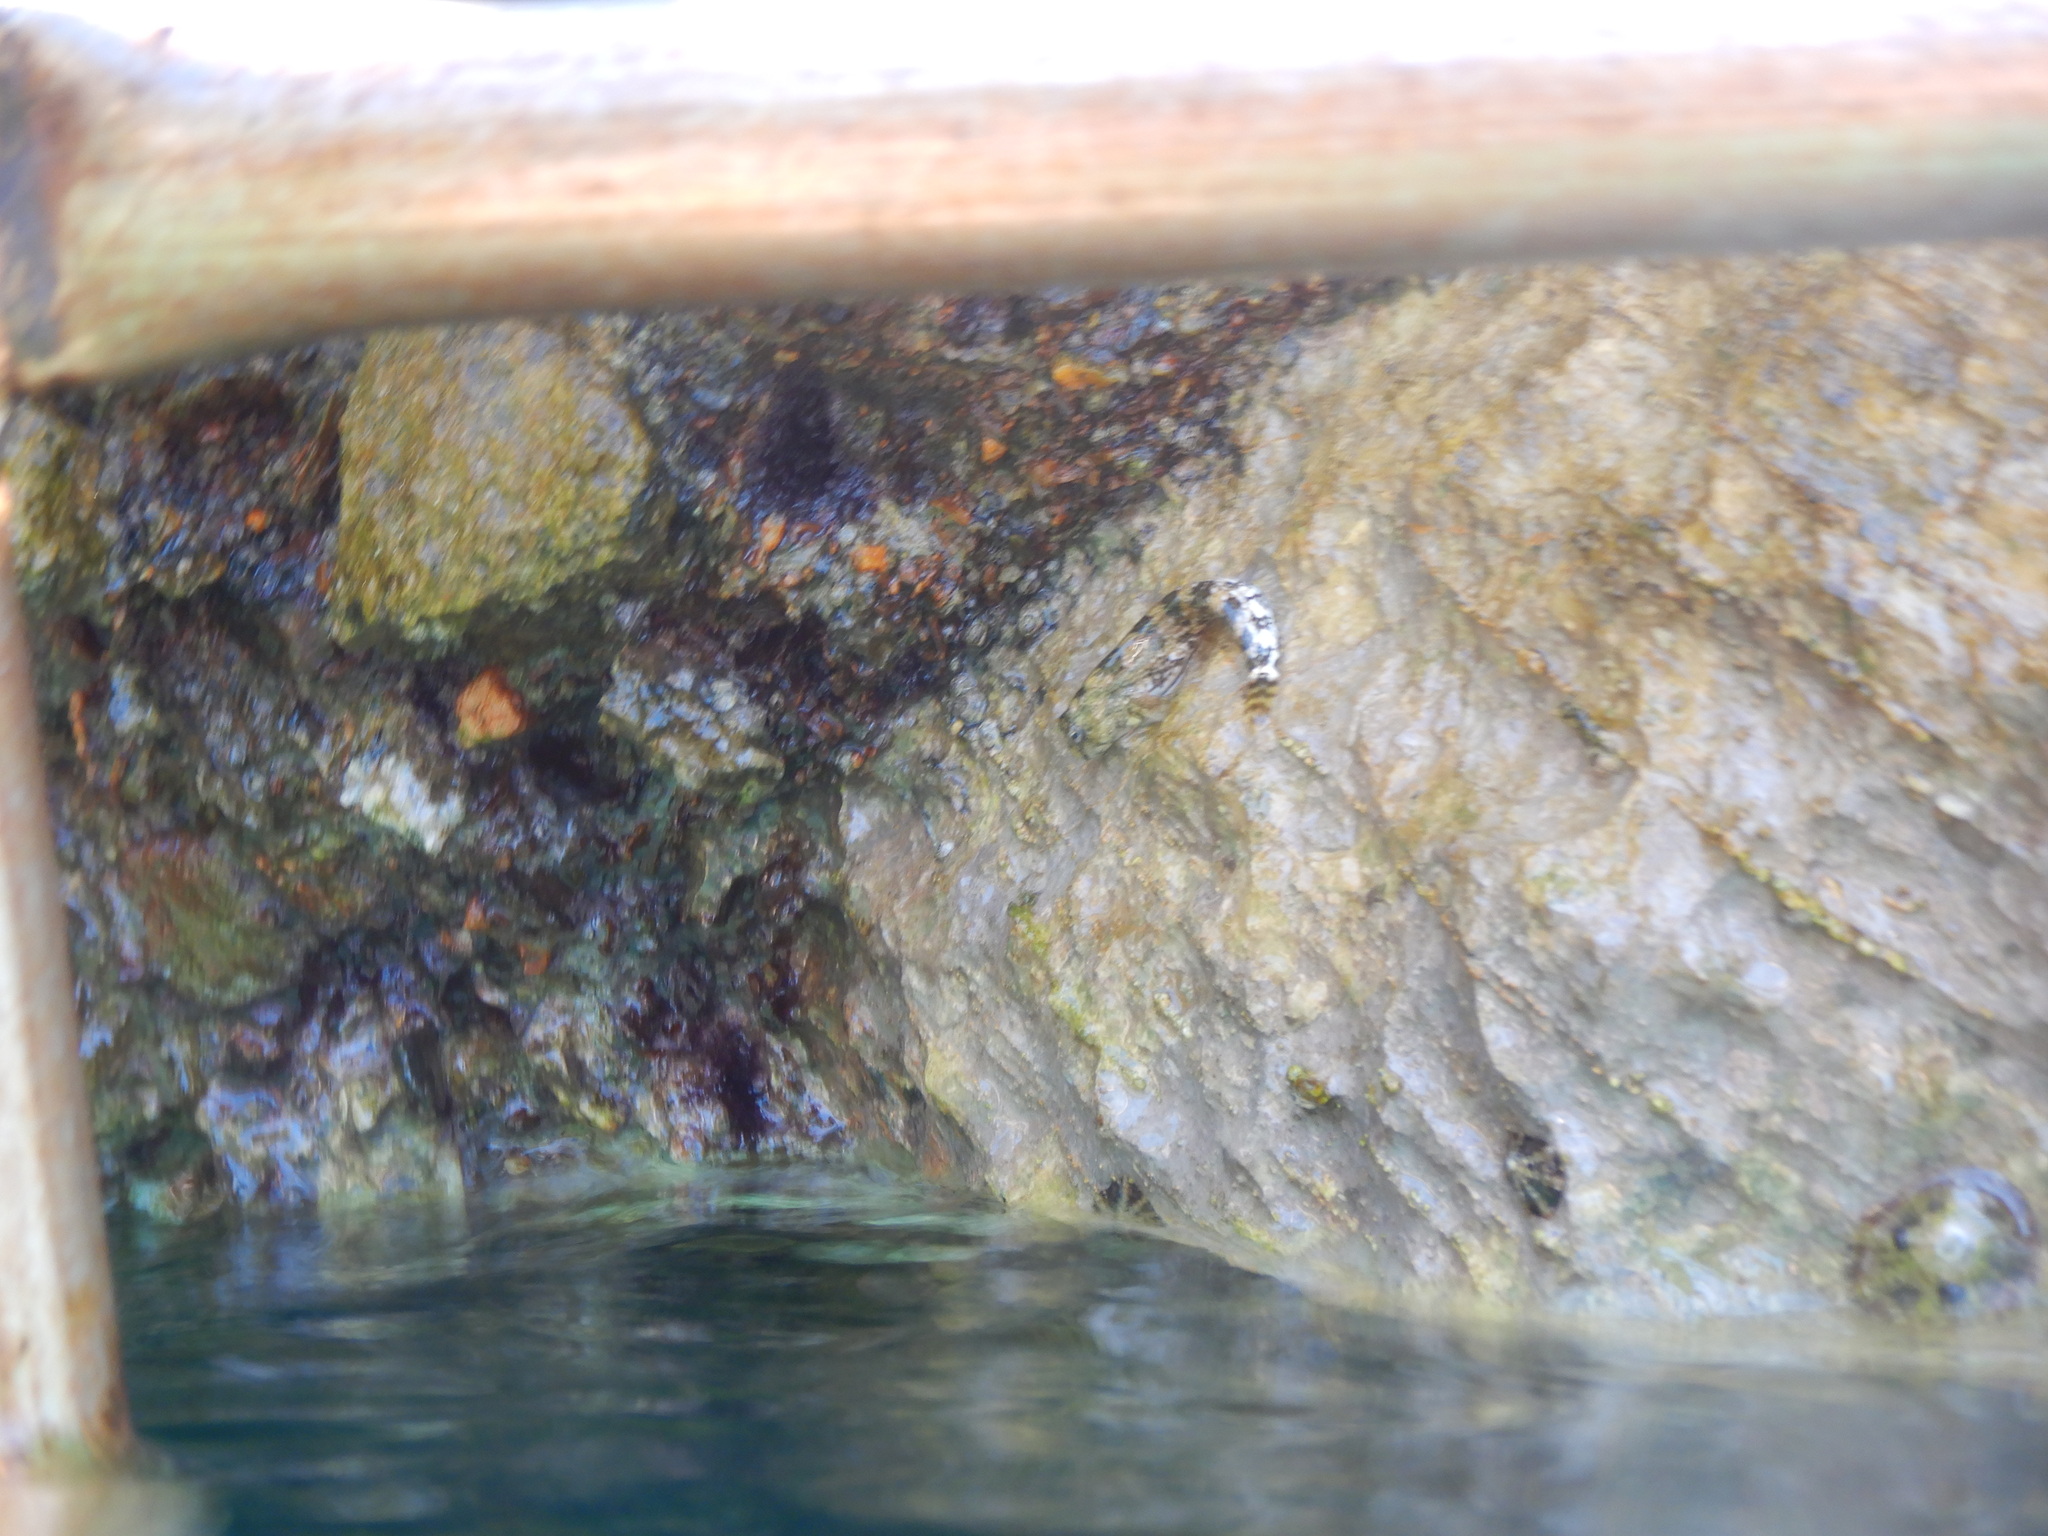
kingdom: Animalia
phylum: Chordata
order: Perciformes
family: Blenniidae
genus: Coryphoblennius
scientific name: Coryphoblennius galerita
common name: Montagu's blenny
